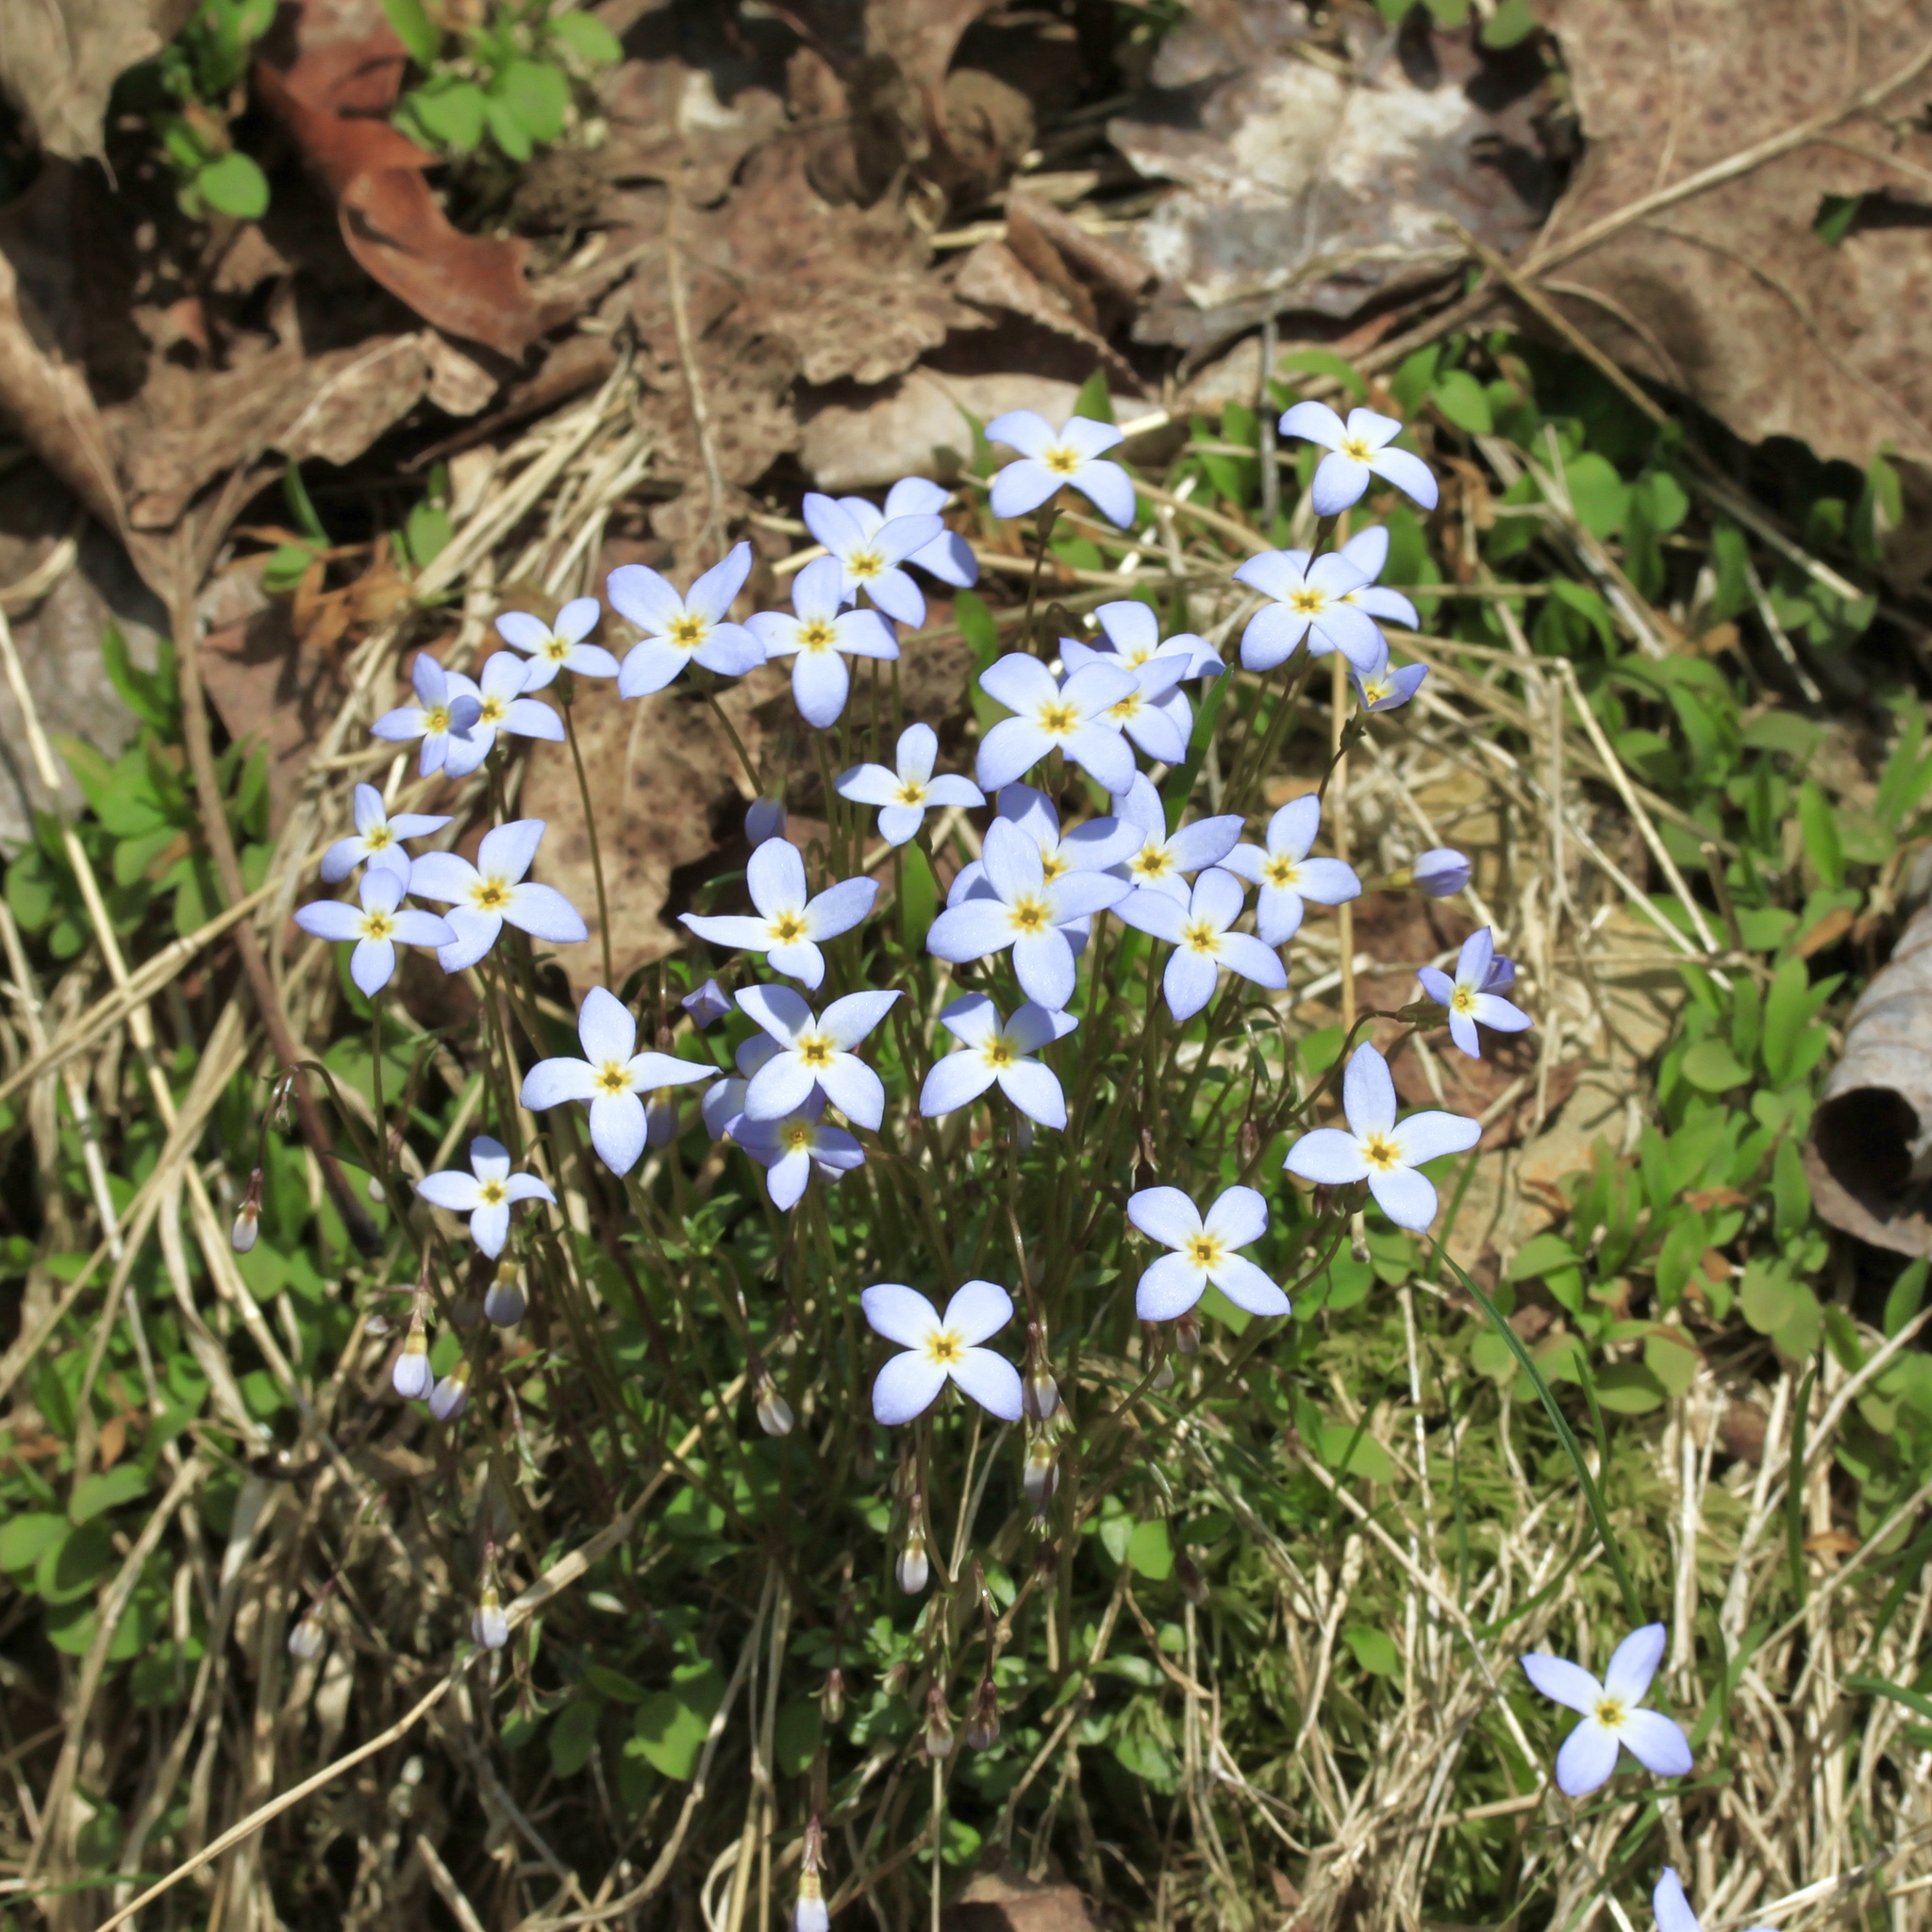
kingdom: Plantae
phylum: Tracheophyta
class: Magnoliopsida
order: Gentianales
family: Rubiaceae
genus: Houstonia
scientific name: Houstonia caerulea
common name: Bluets
